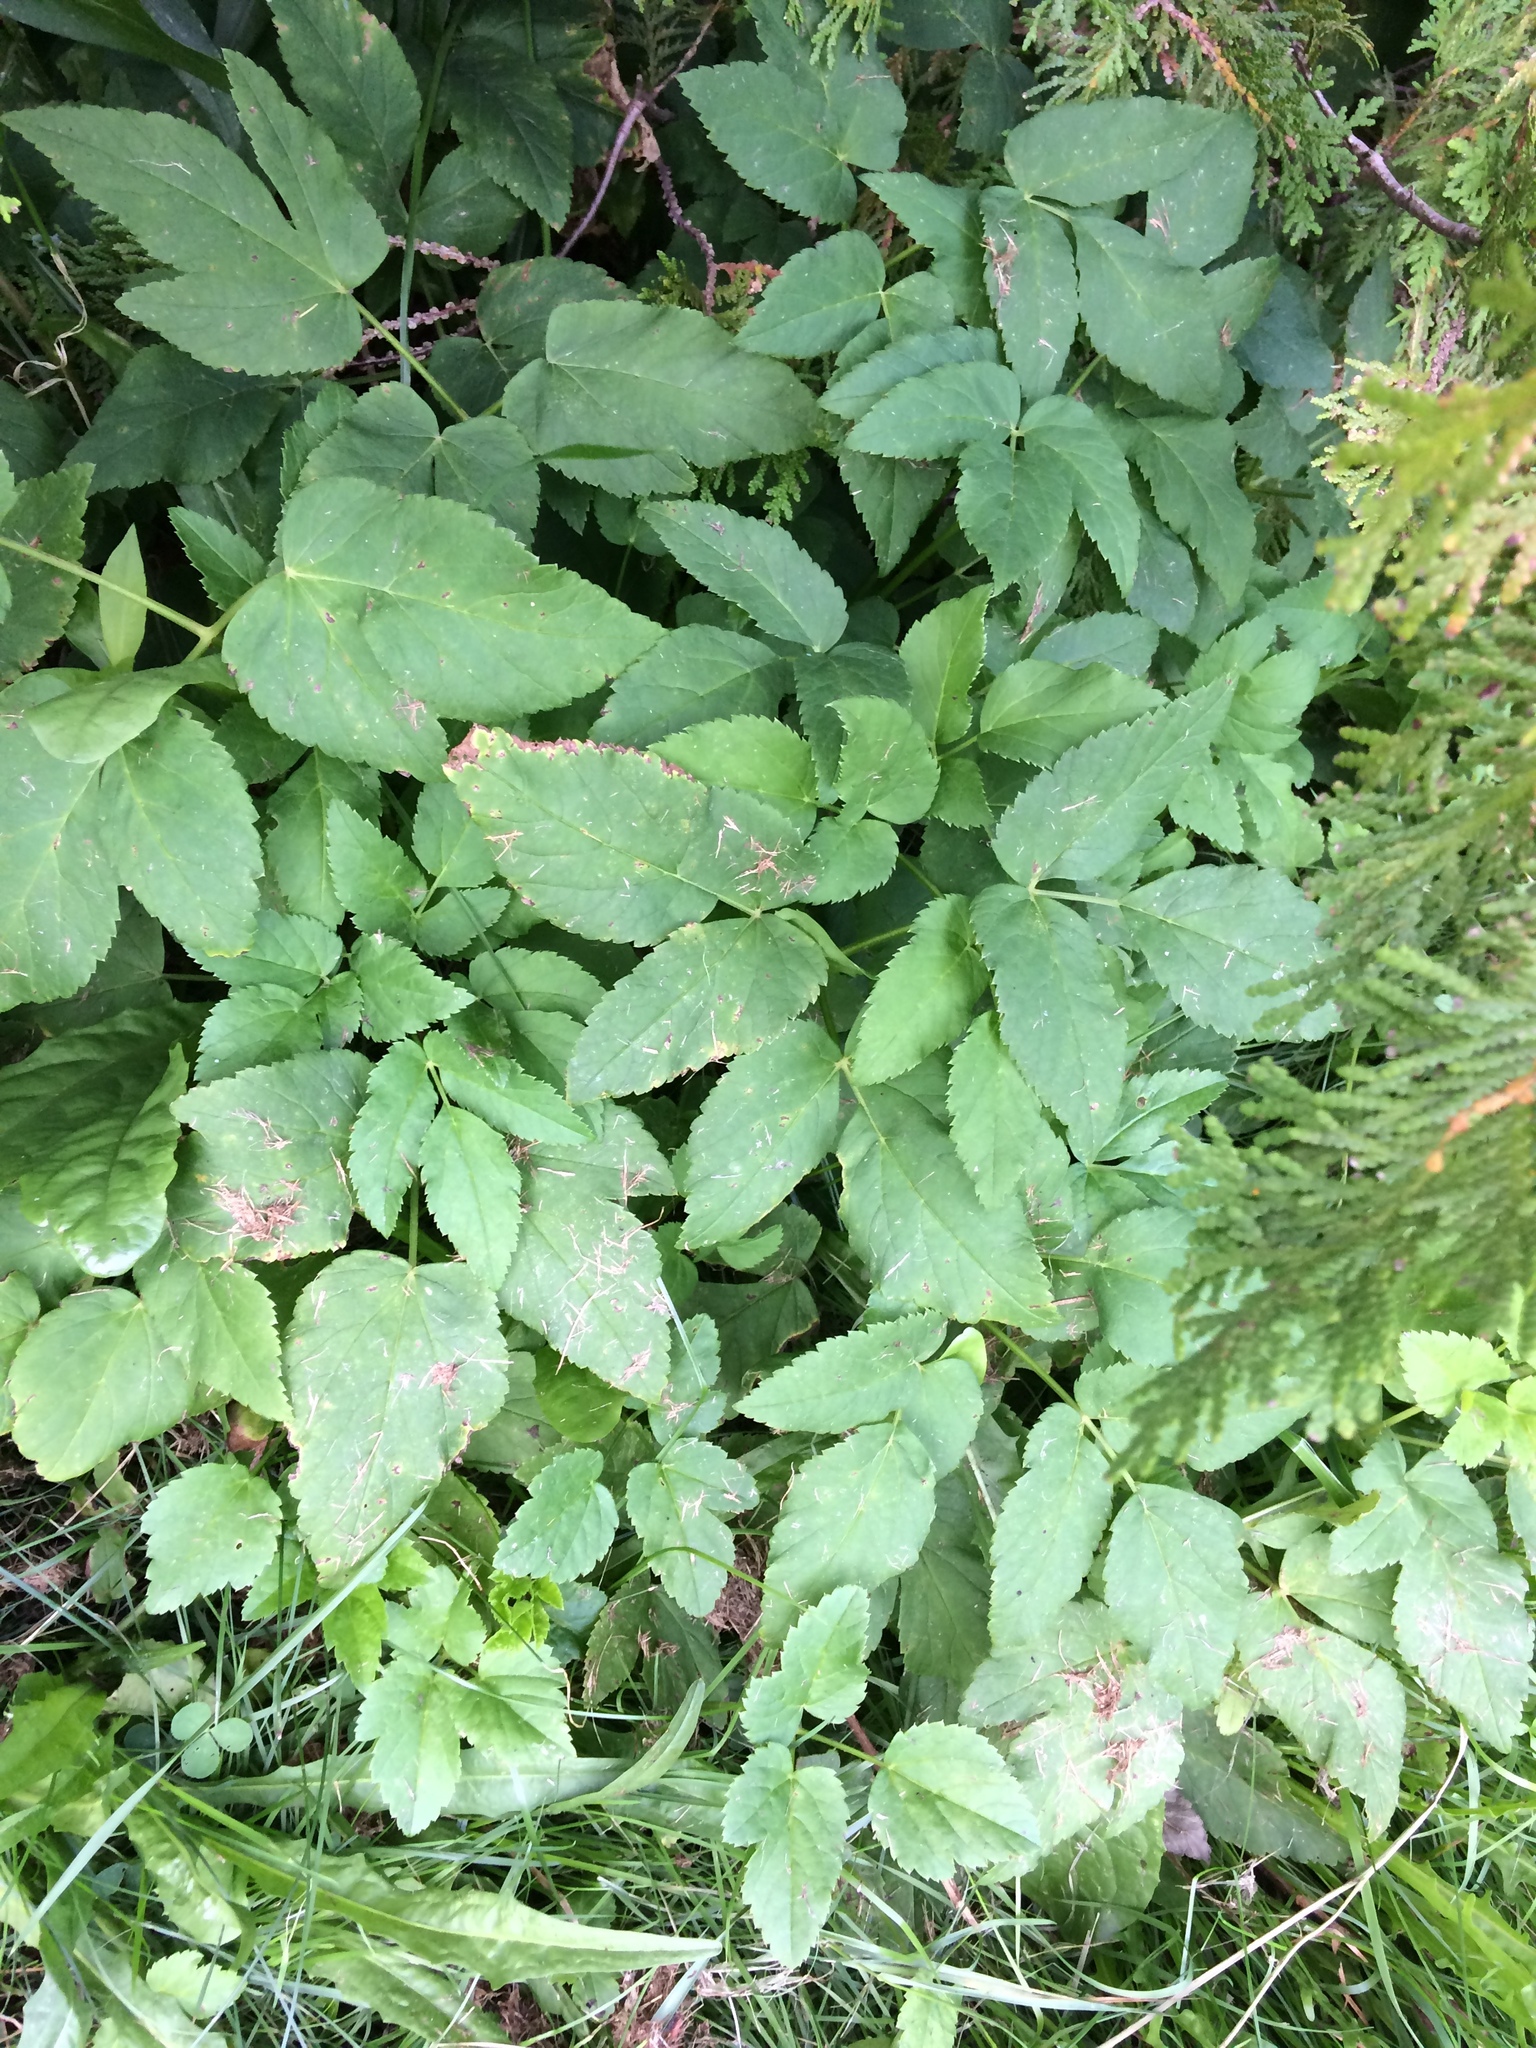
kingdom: Plantae
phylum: Tracheophyta
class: Magnoliopsida
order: Apiales
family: Apiaceae
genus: Aegopodium
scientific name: Aegopodium podagraria
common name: Ground-elder
